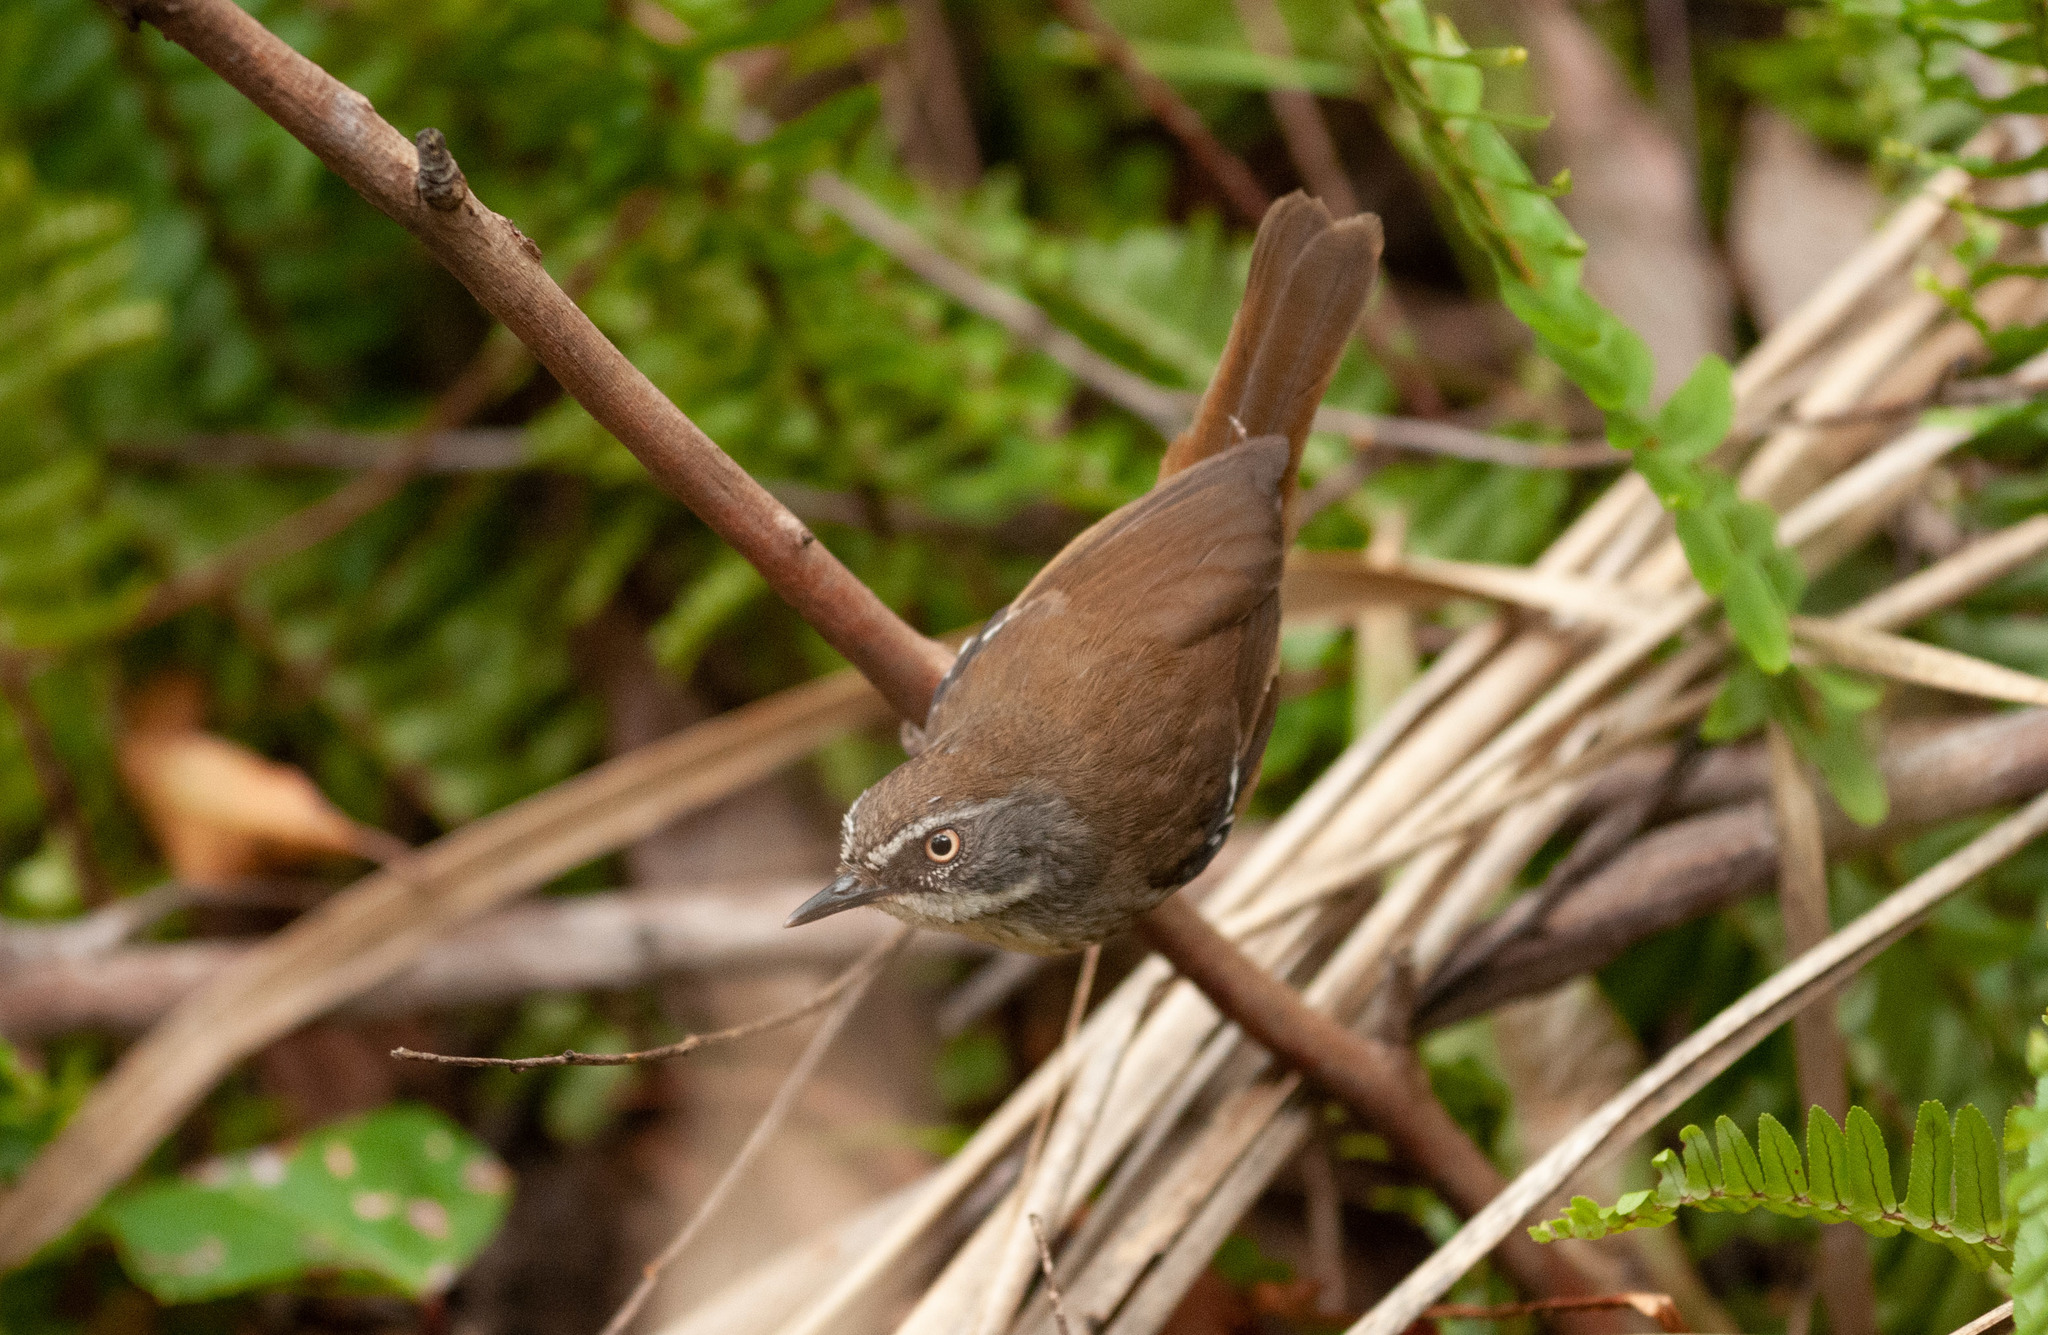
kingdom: Animalia
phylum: Chordata
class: Aves
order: Passeriformes
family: Acanthizidae
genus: Sericornis
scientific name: Sericornis frontalis
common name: White-browed scrubwren
